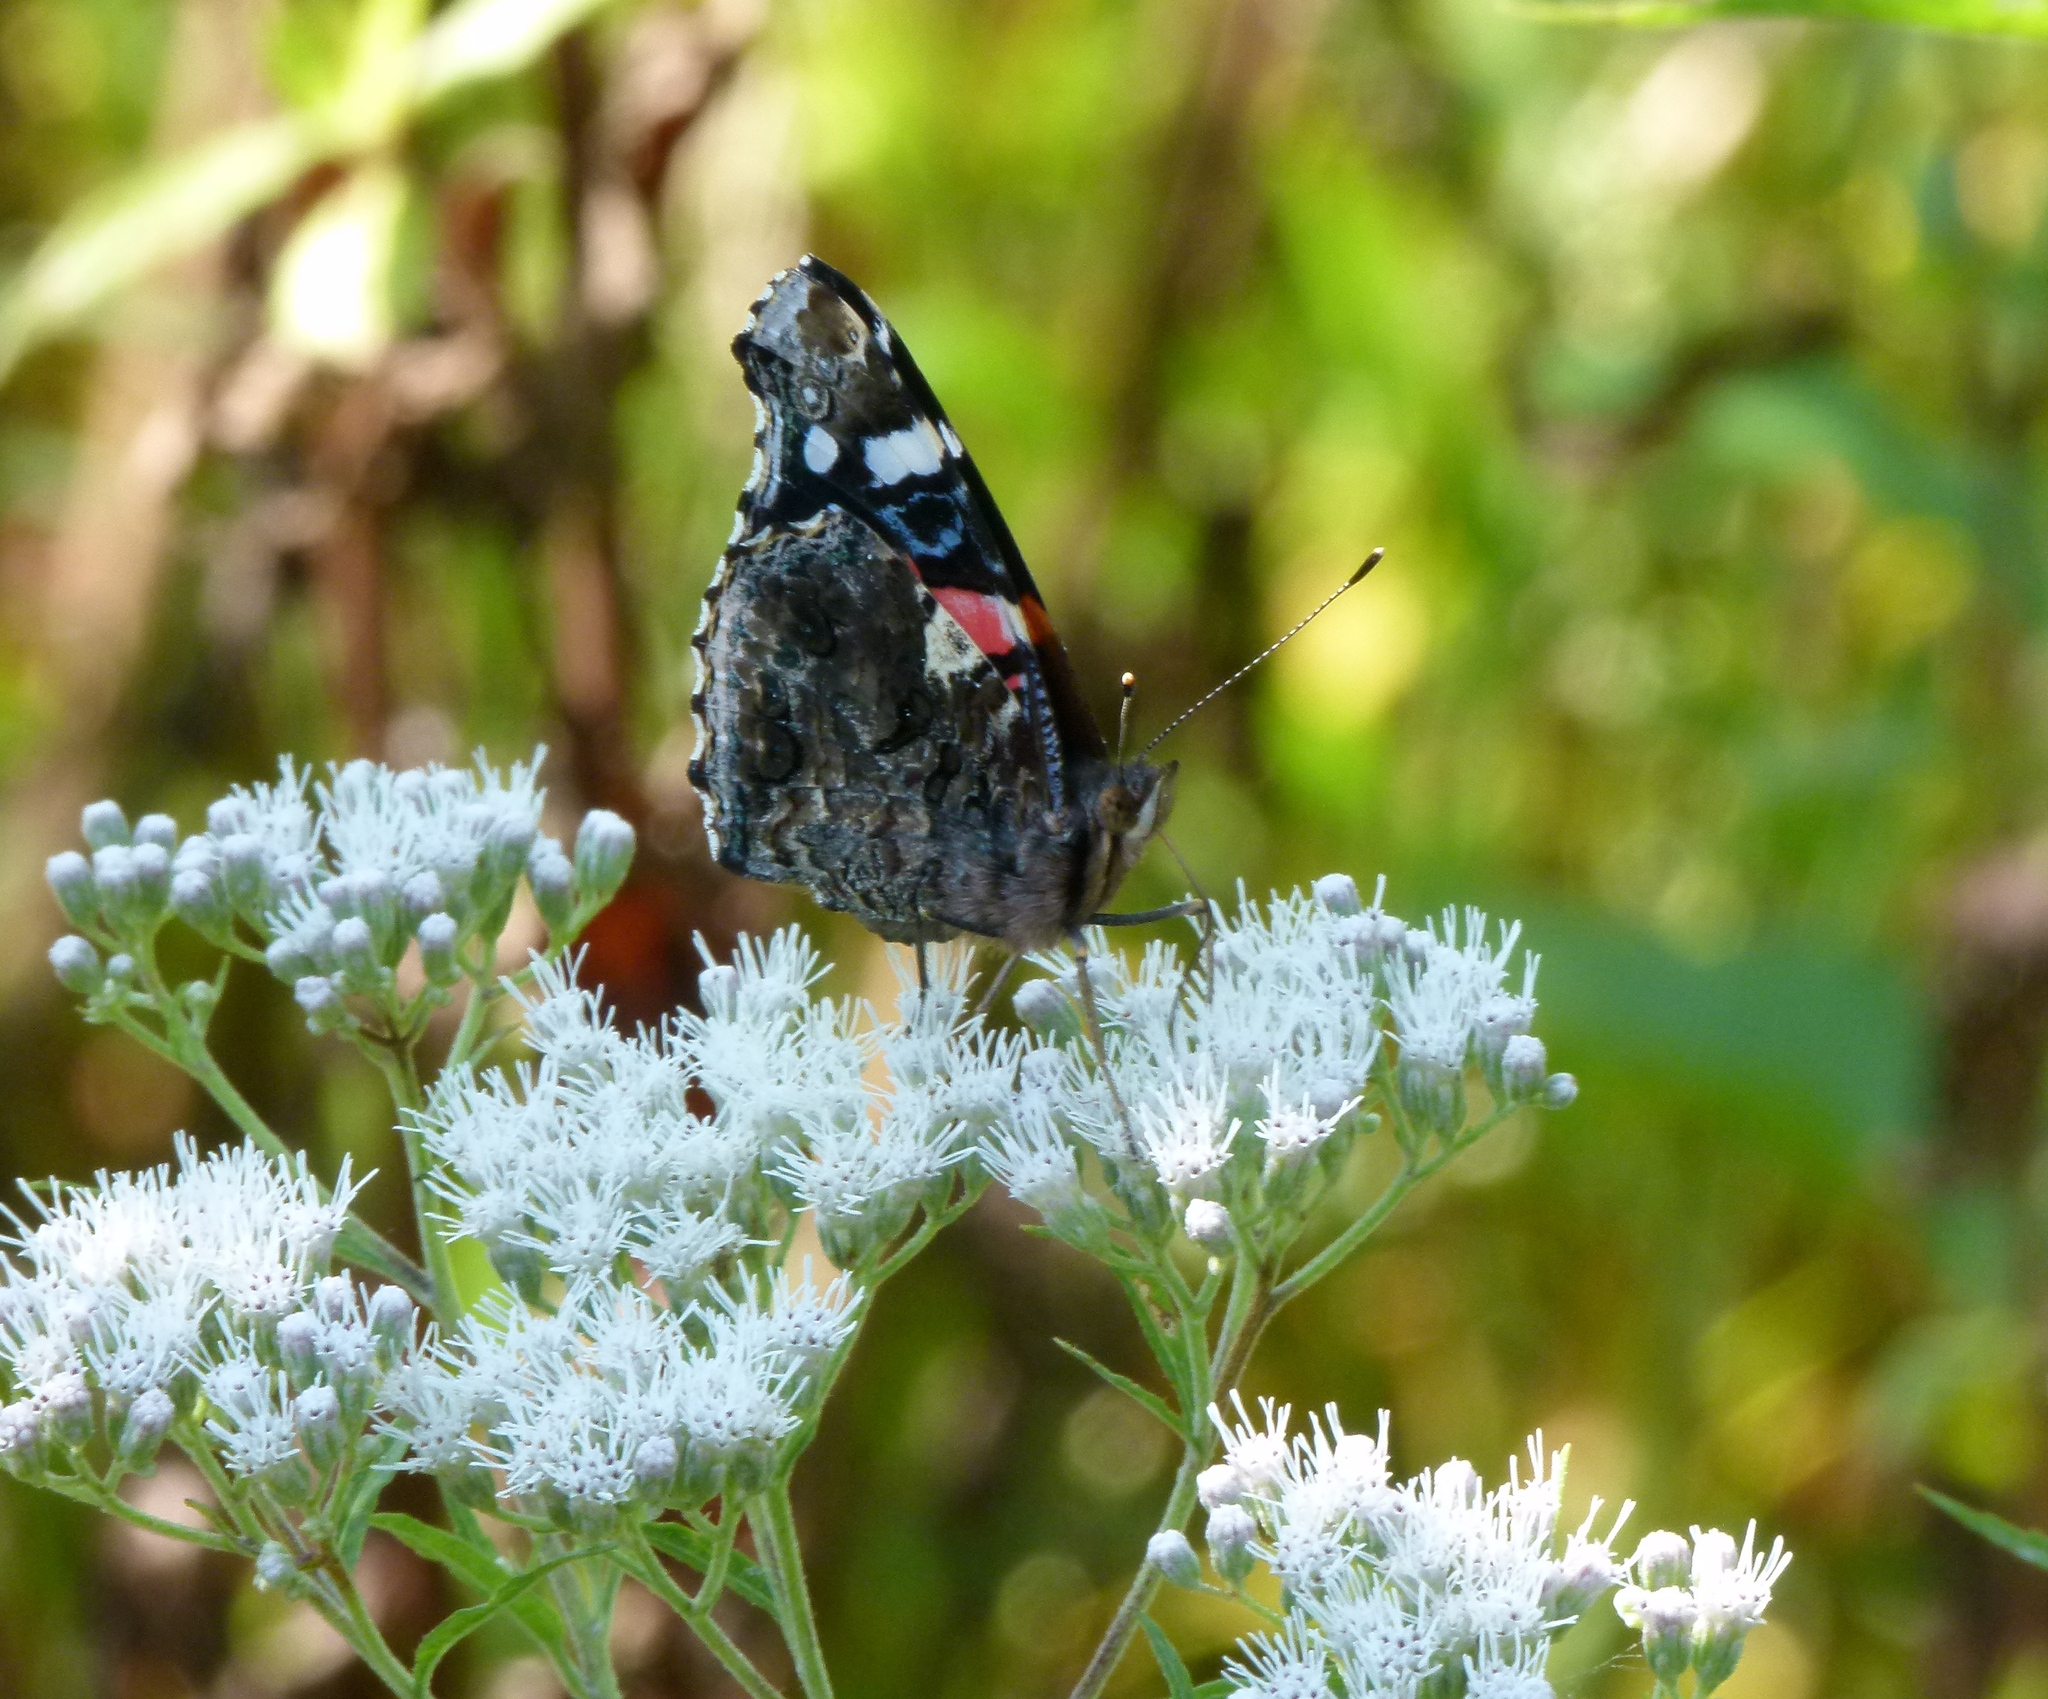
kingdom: Animalia
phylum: Arthropoda
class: Insecta
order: Lepidoptera
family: Nymphalidae
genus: Vanessa
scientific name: Vanessa atalanta
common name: Red admiral
